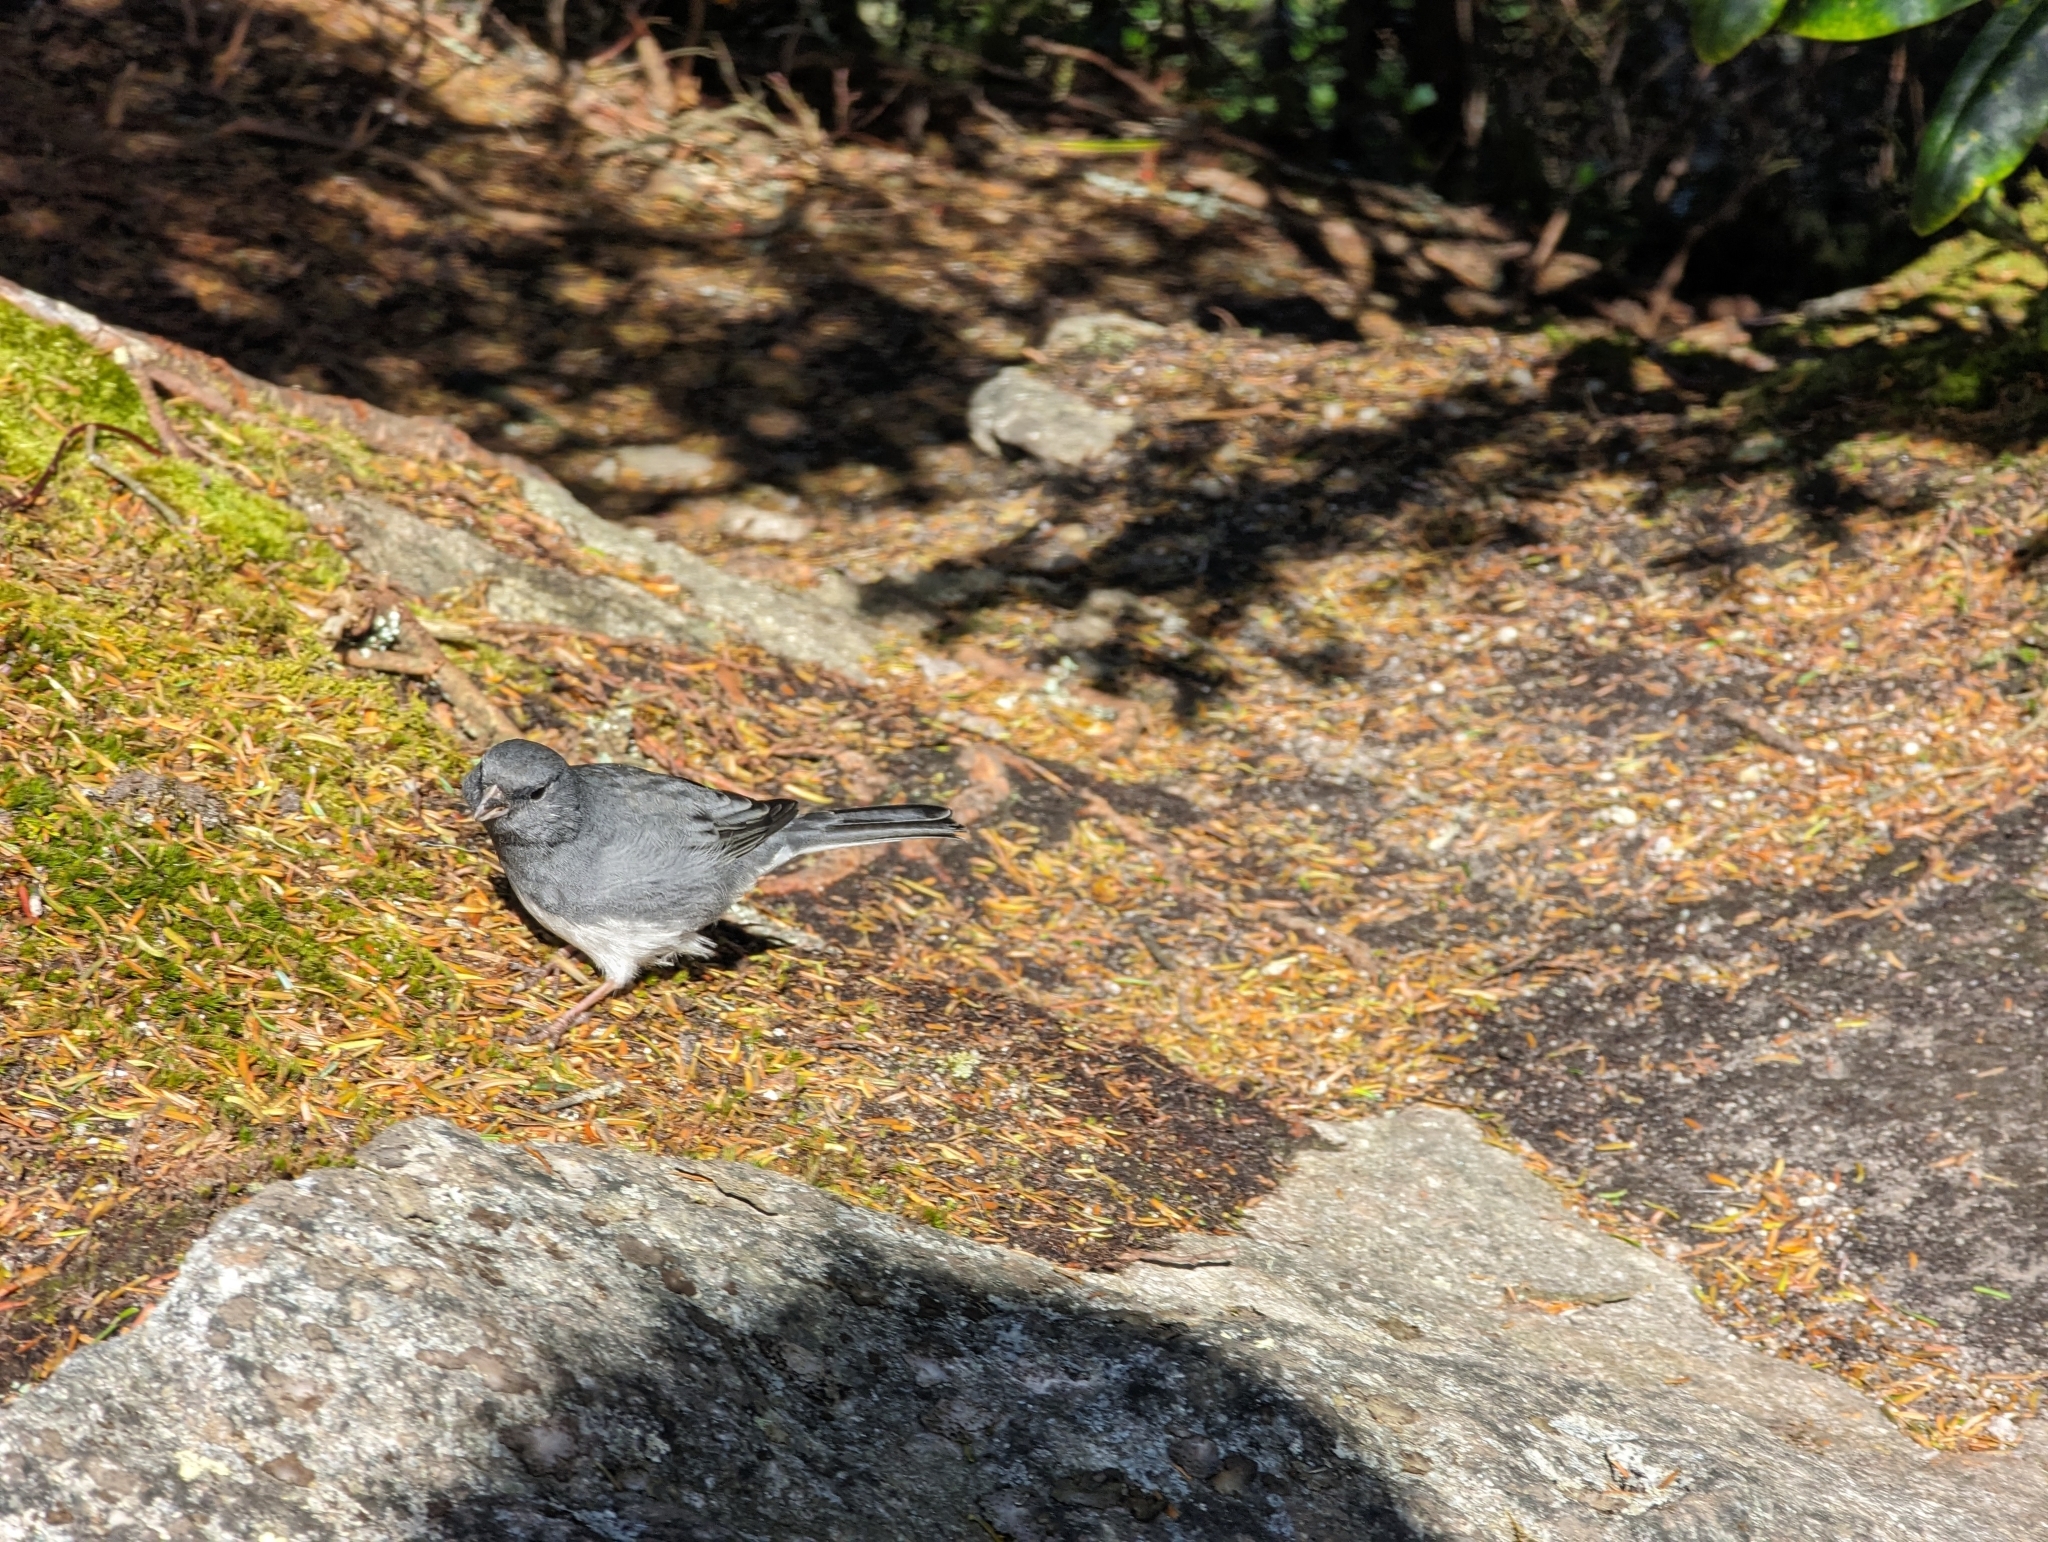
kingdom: Animalia
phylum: Chordata
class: Aves
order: Passeriformes
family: Passerellidae
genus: Junco
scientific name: Junco hyemalis
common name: Dark-eyed junco
